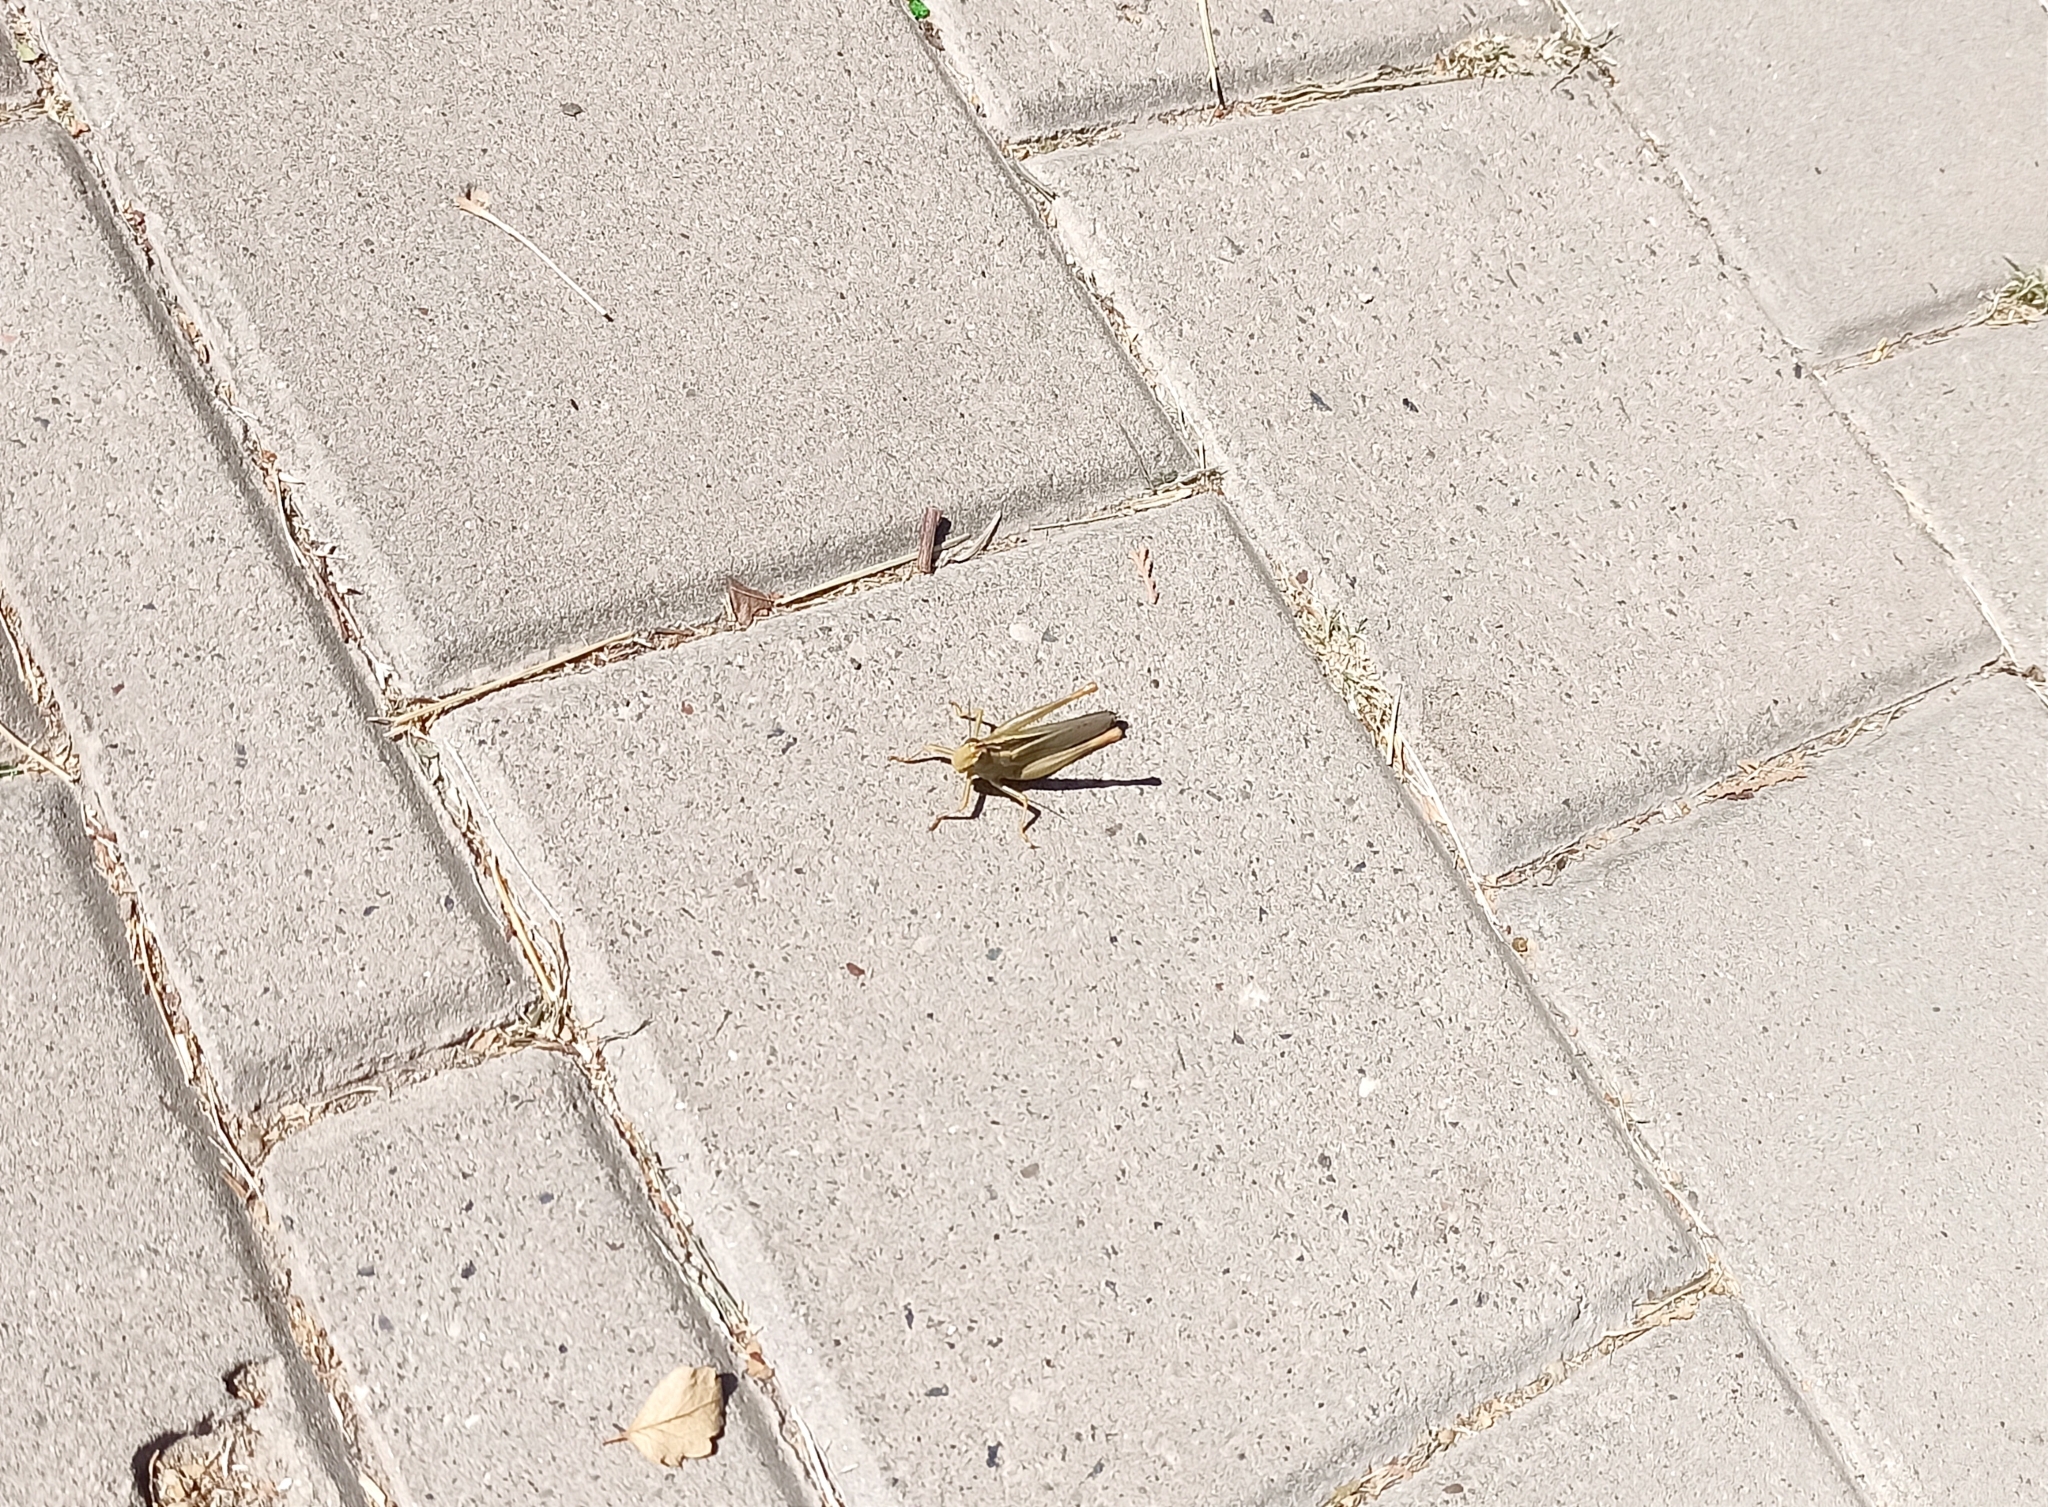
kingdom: Animalia
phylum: Arthropoda
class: Insecta
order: Orthoptera
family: Acrididae
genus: Heteracris
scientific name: Heteracris pterosticha
